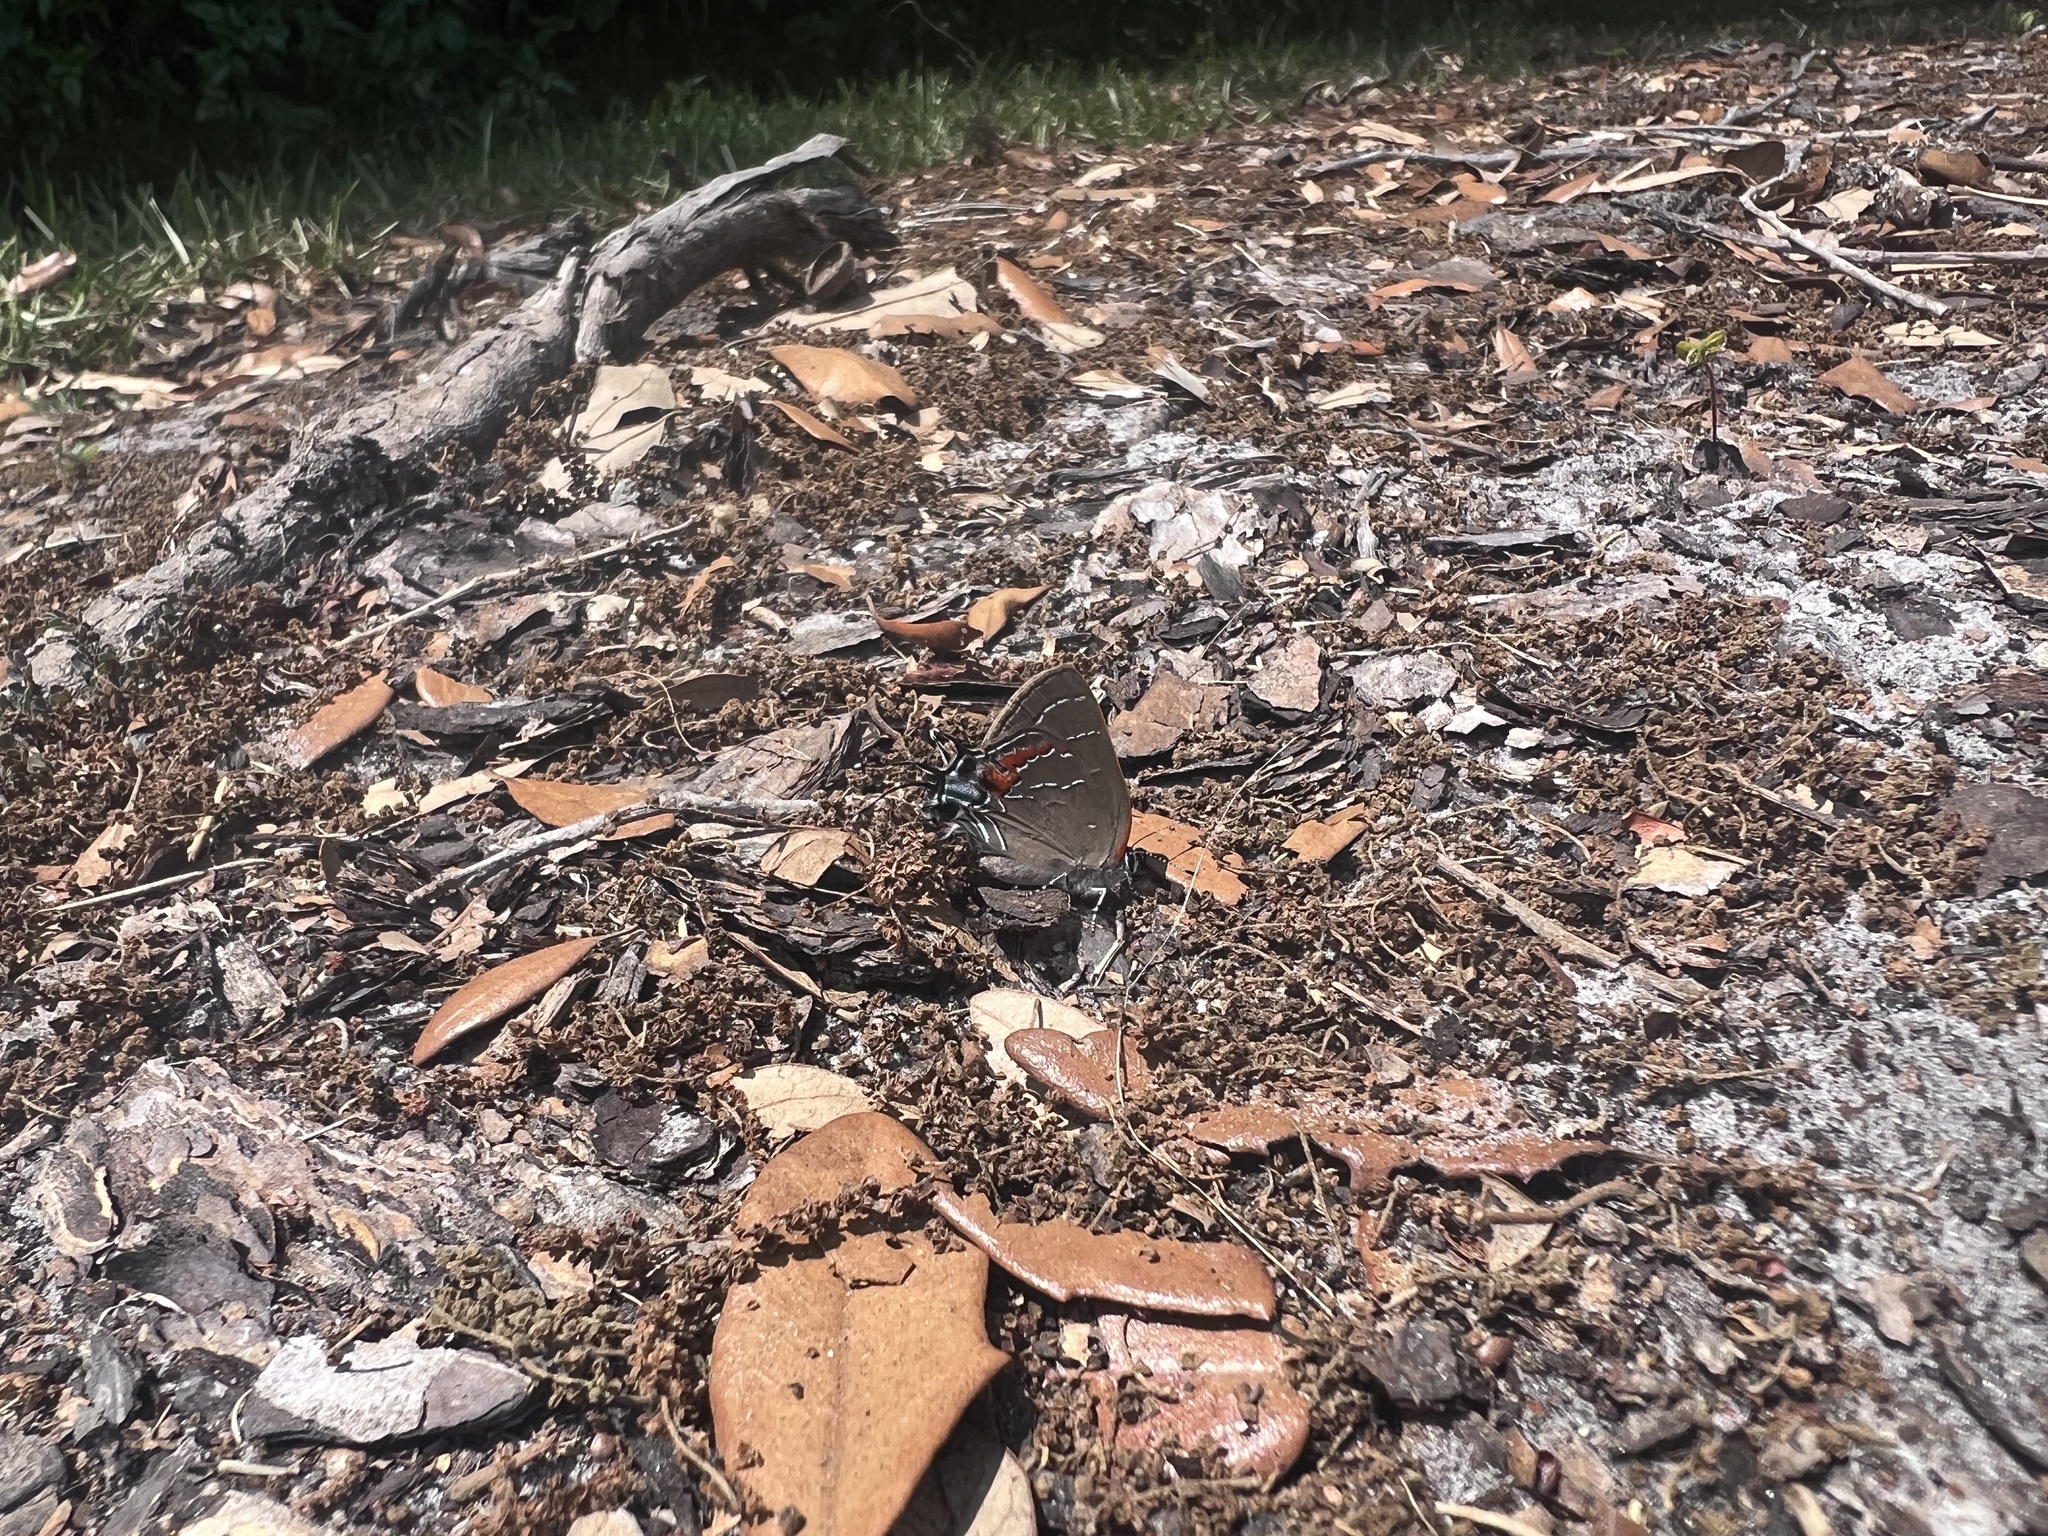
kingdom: Animalia
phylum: Arthropoda
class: Insecta
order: Lepidoptera
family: Lycaenidae
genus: Fixsenia
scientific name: Fixsenia favonius
